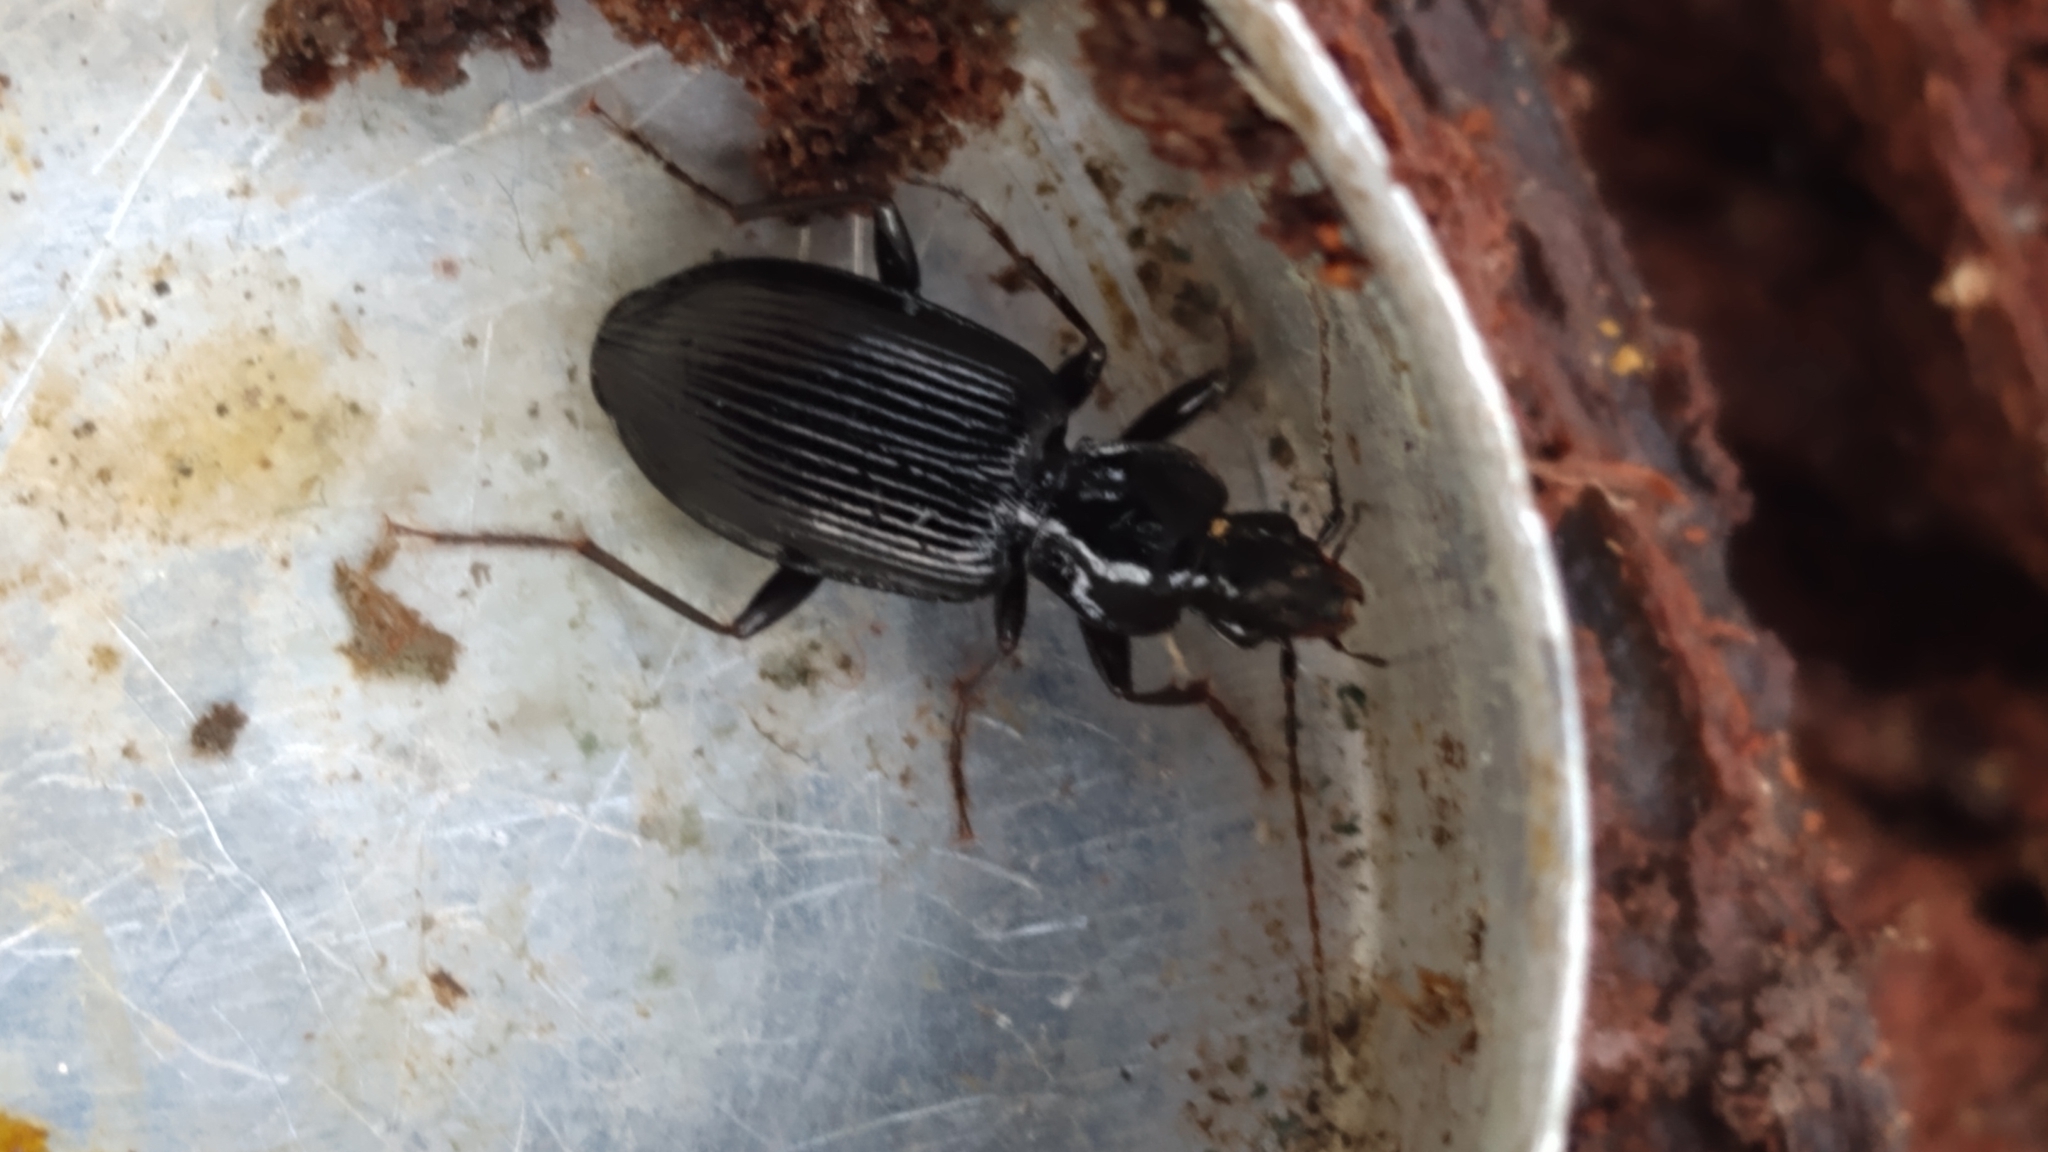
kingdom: Animalia
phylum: Arthropoda
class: Insecta
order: Coleoptera
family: Carabidae
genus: Platynus
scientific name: Platynus decentis
